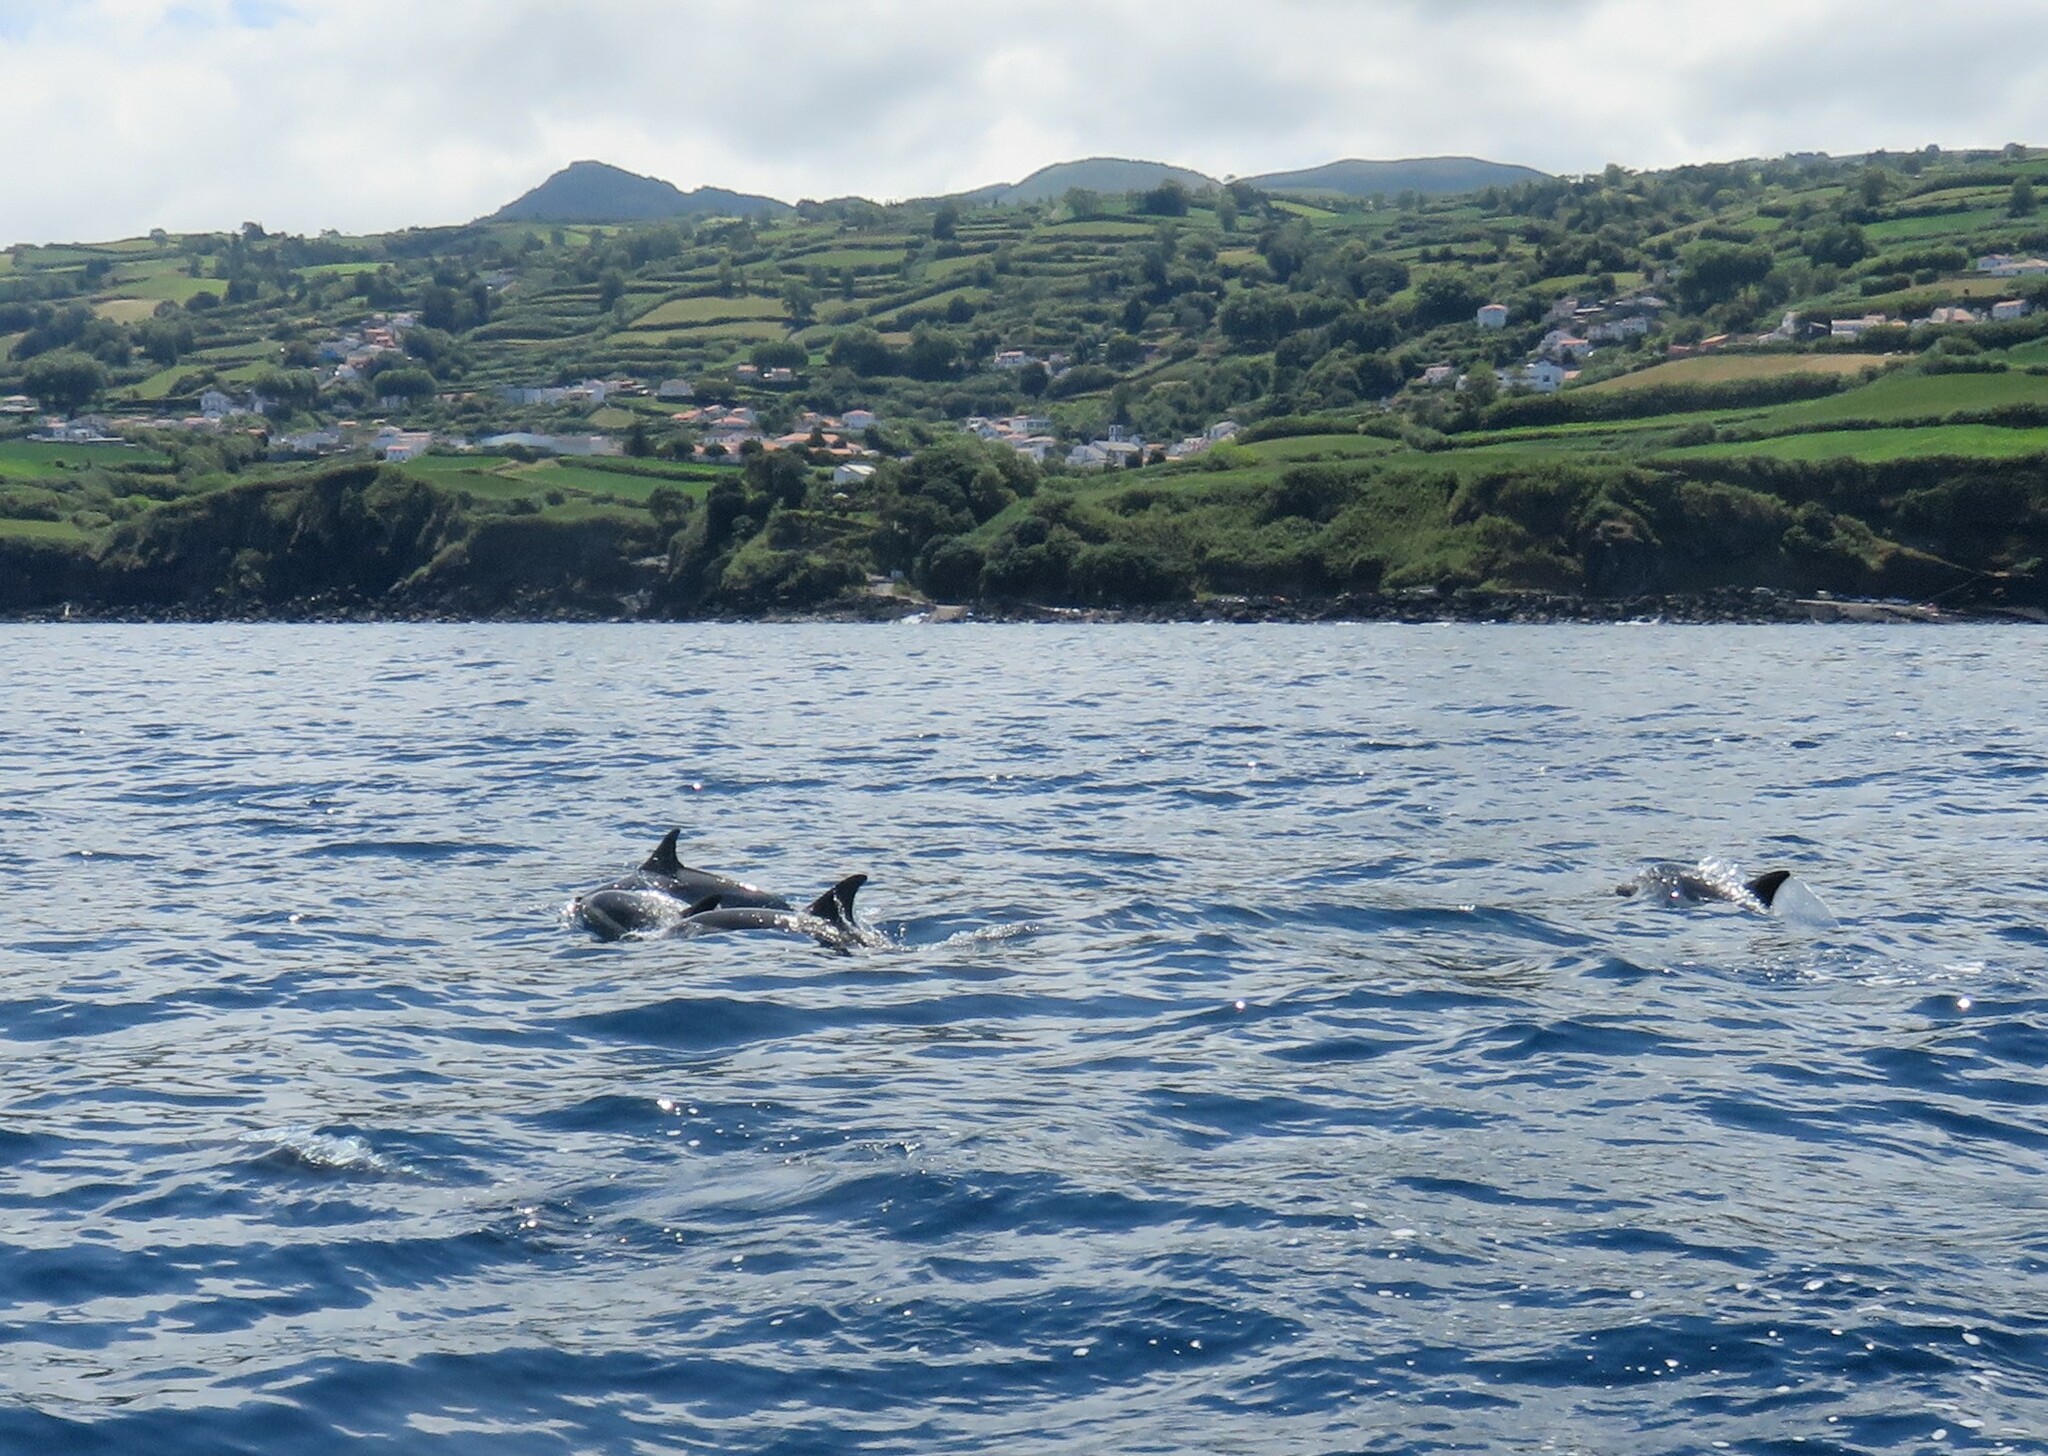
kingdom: Animalia
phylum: Chordata
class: Mammalia
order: Cetacea
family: Delphinidae
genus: Delphinus
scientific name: Delphinus delphis
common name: Common dolphin
